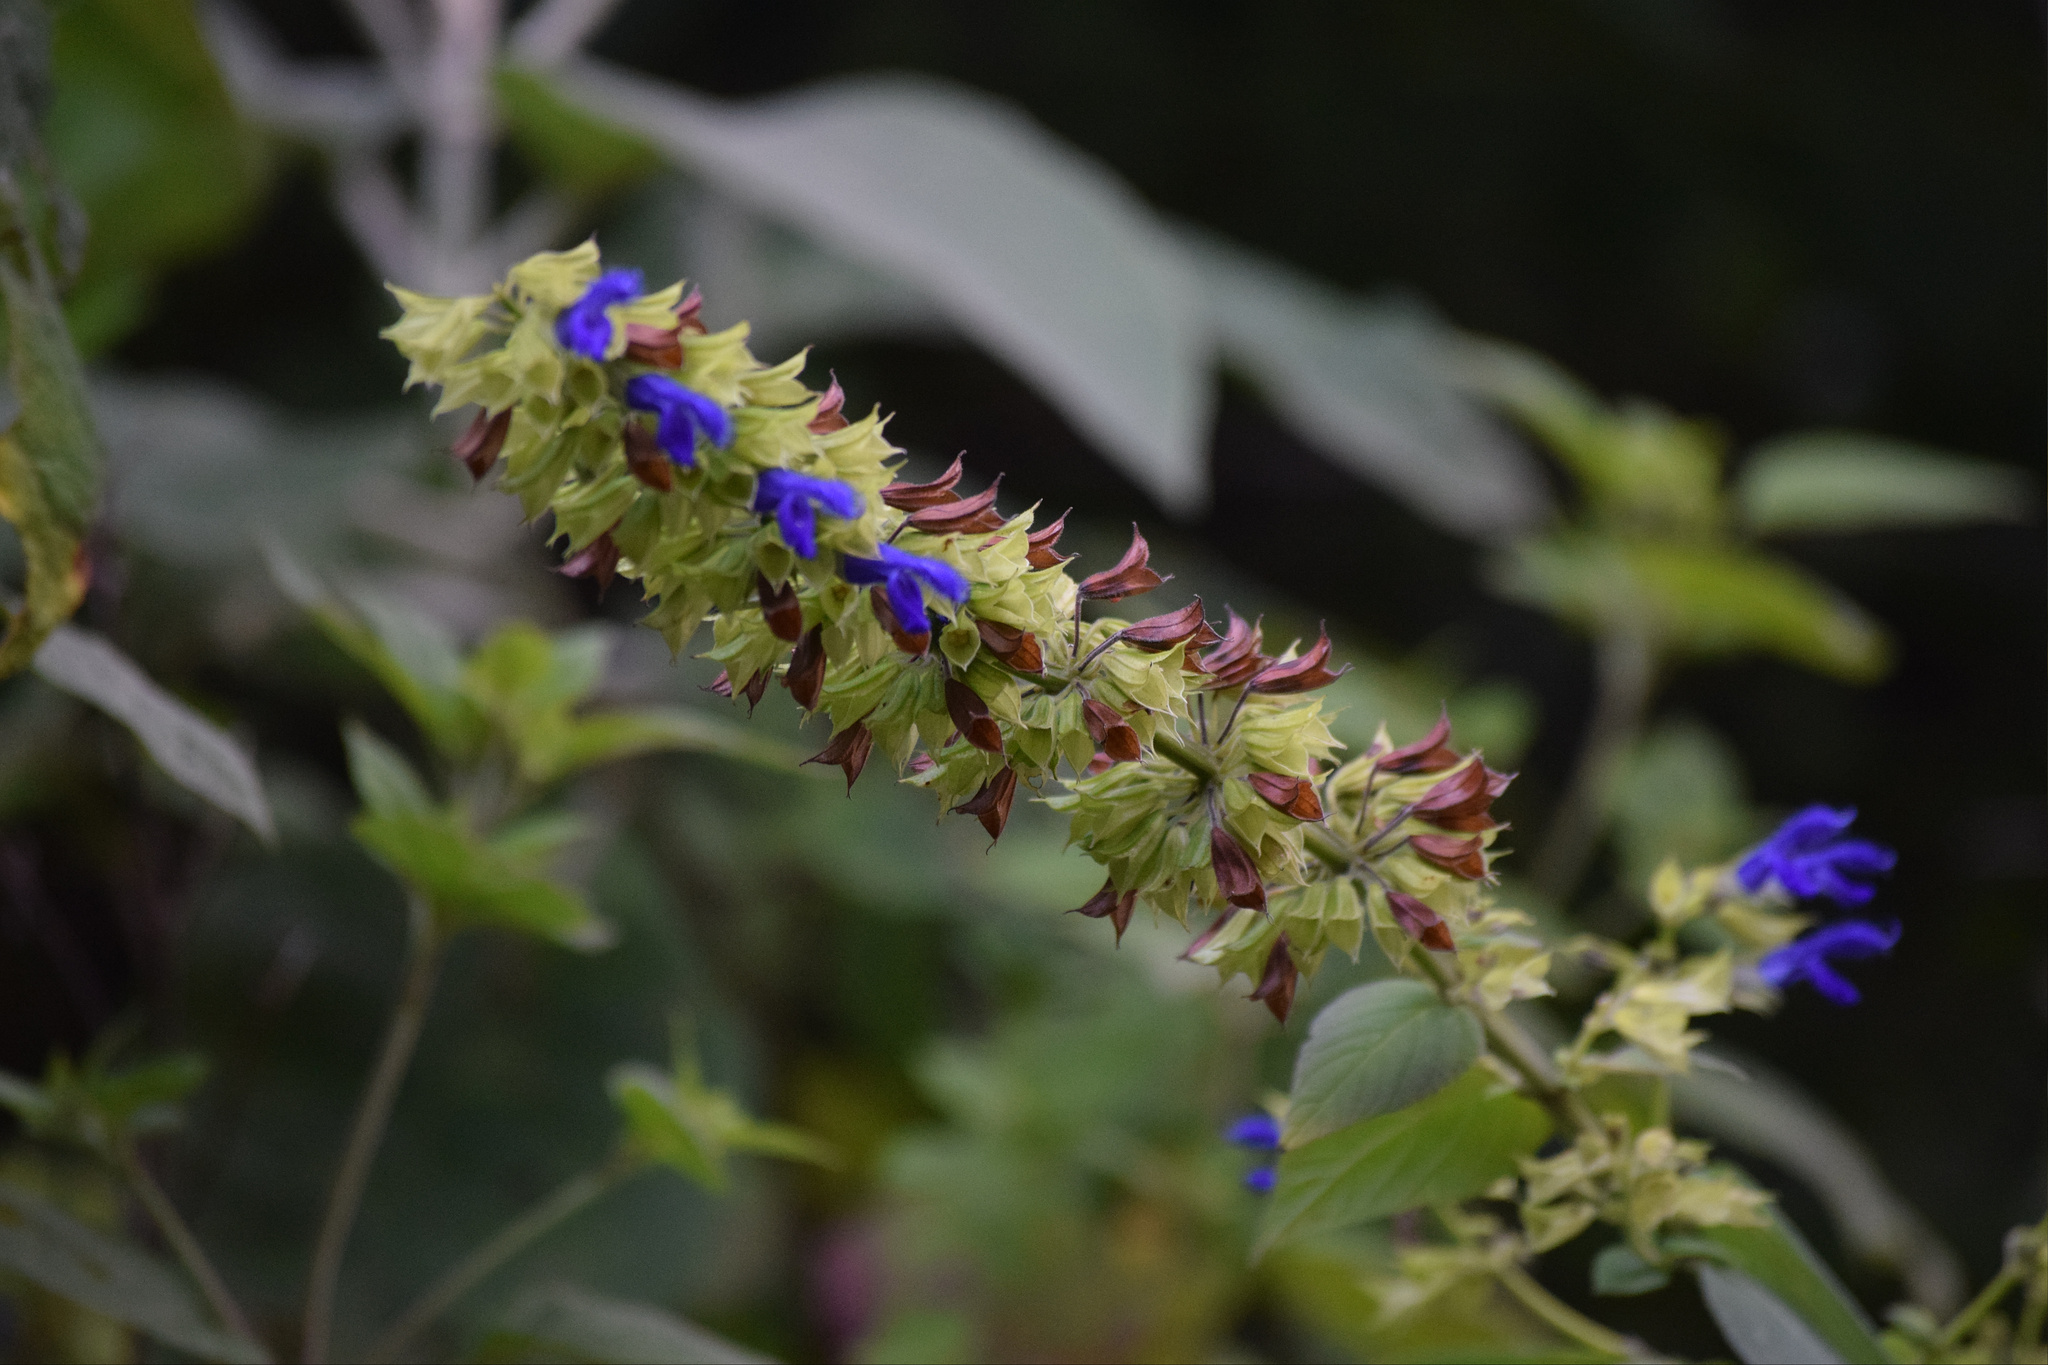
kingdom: Plantae
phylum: Tracheophyta
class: Magnoliopsida
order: Lamiales
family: Lamiaceae
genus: Salvia
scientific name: Salvia mexicana
